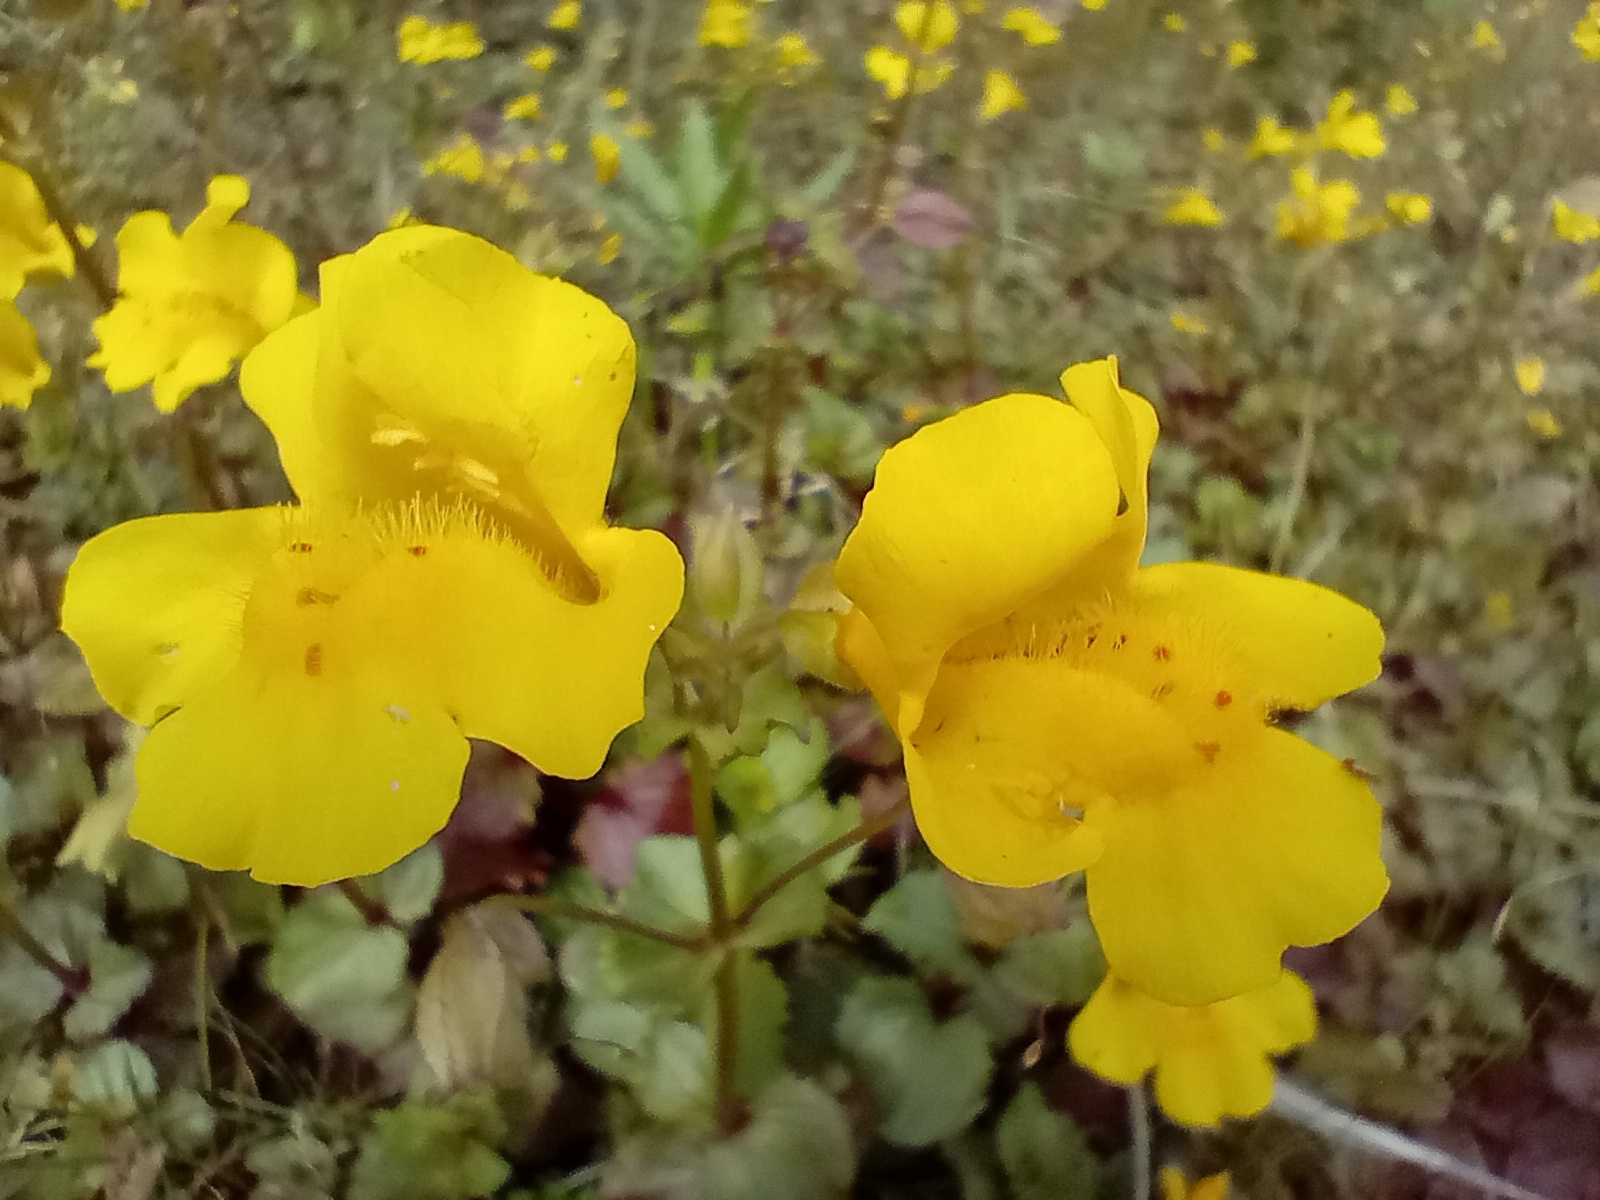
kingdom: Plantae
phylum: Tracheophyta
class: Magnoliopsida
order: Lamiales
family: Phrymaceae
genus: Erythranthe
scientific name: Erythranthe guttata
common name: Monkeyflower
